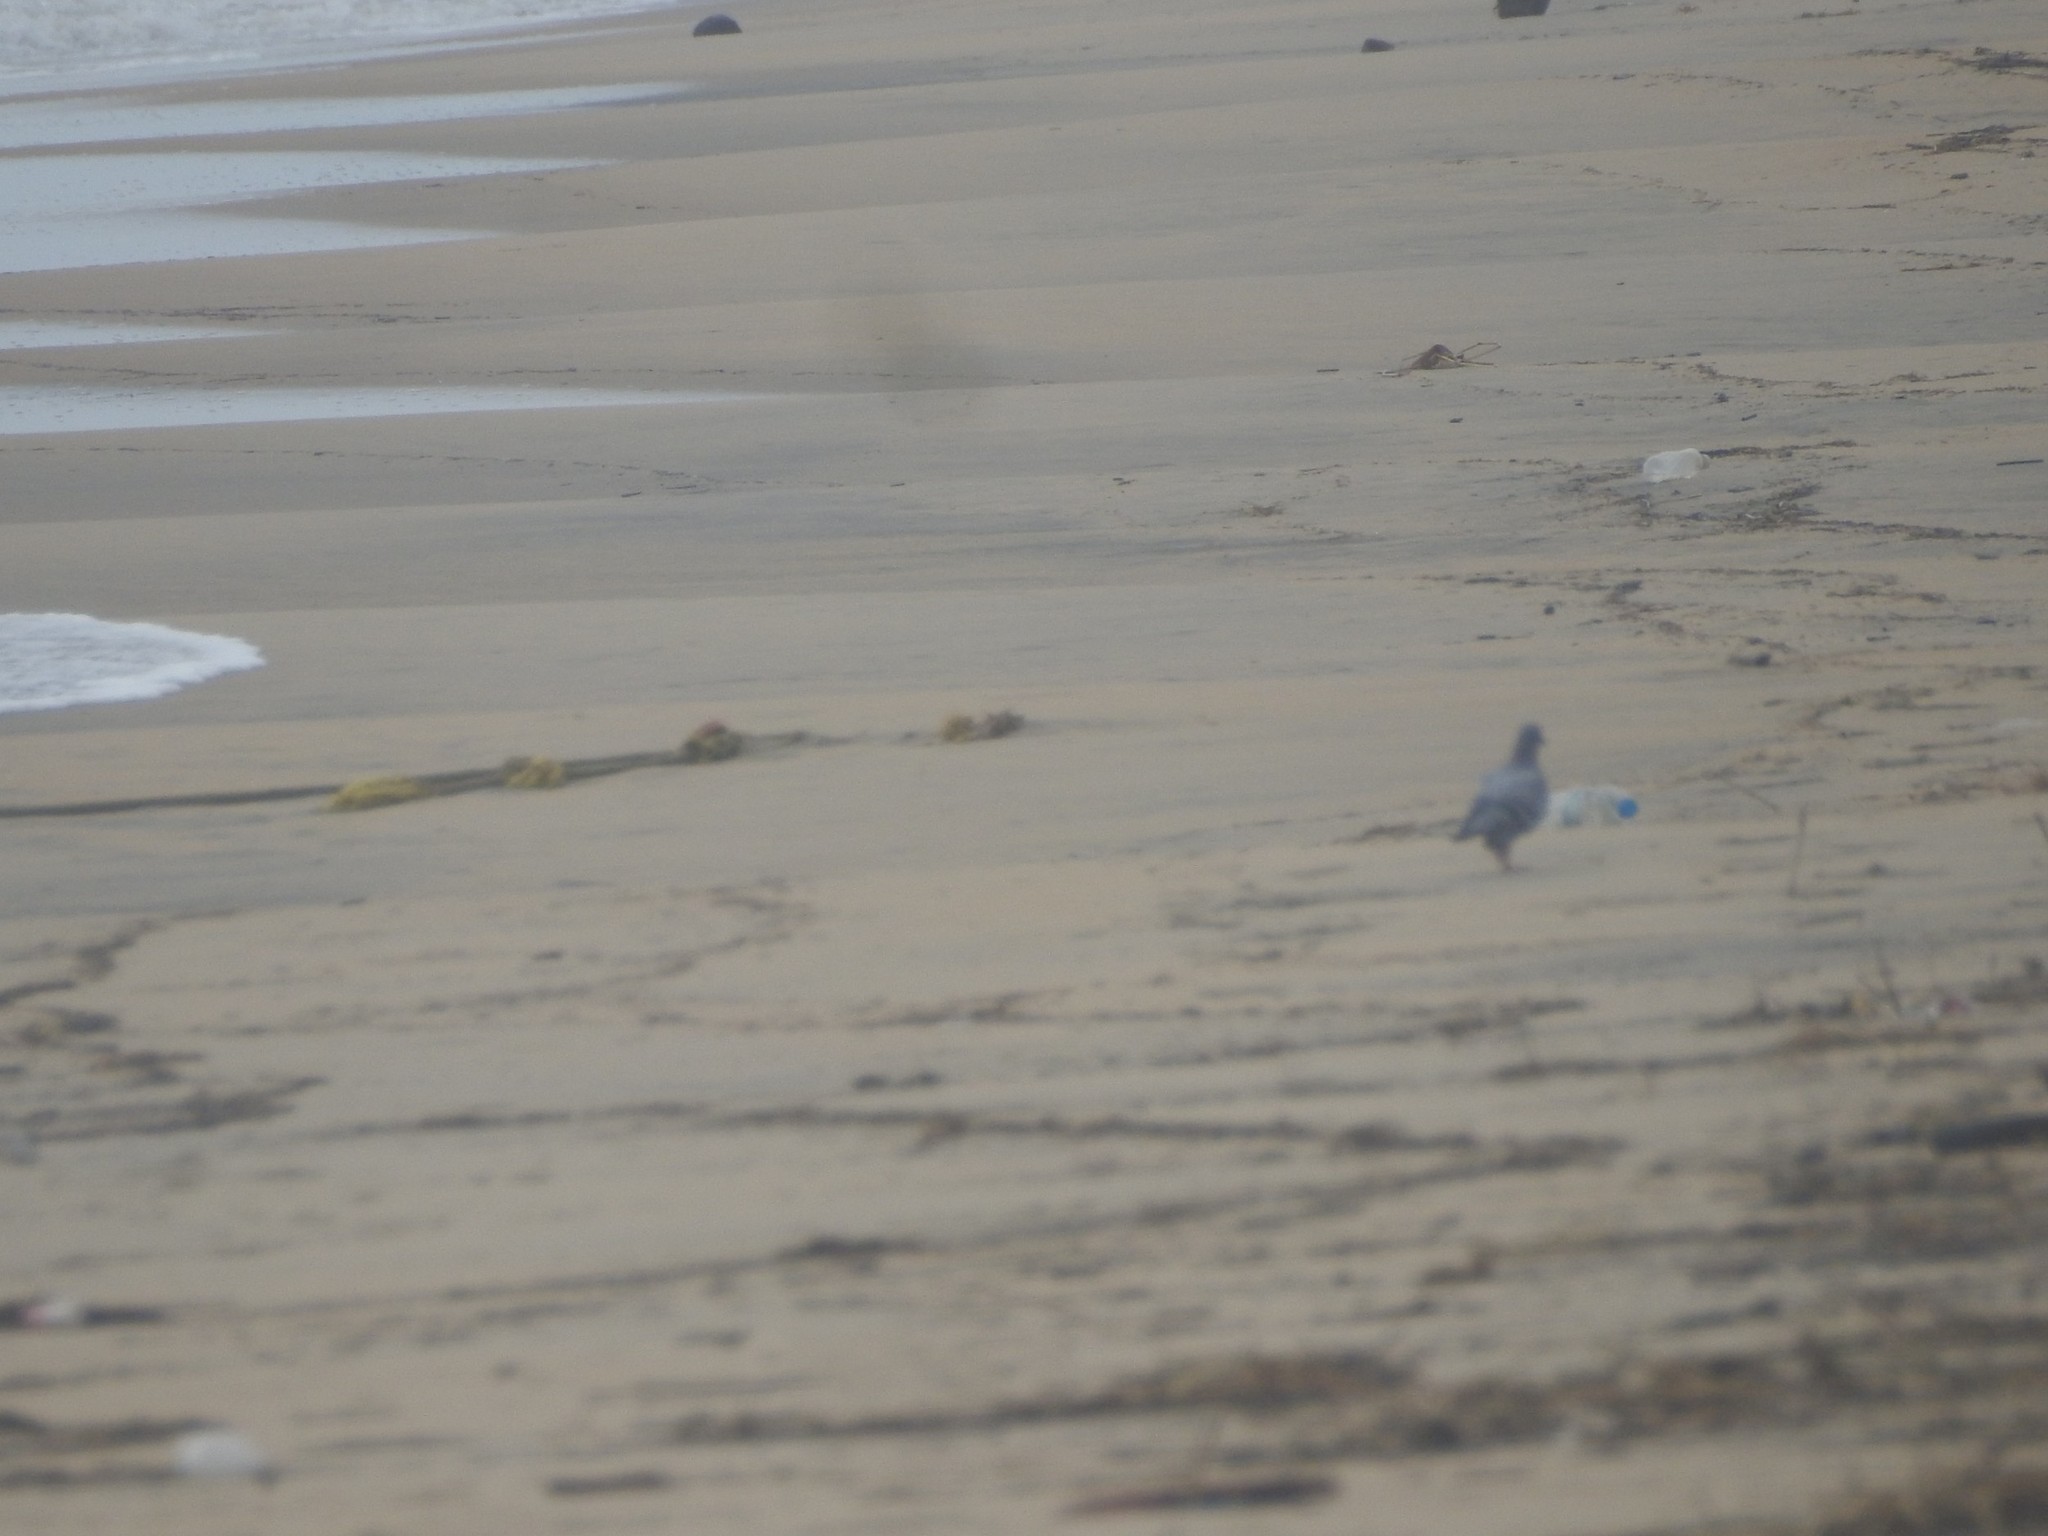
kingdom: Animalia
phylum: Chordata
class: Aves
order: Columbiformes
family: Columbidae
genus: Columba
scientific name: Columba livia
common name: Rock pigeon
